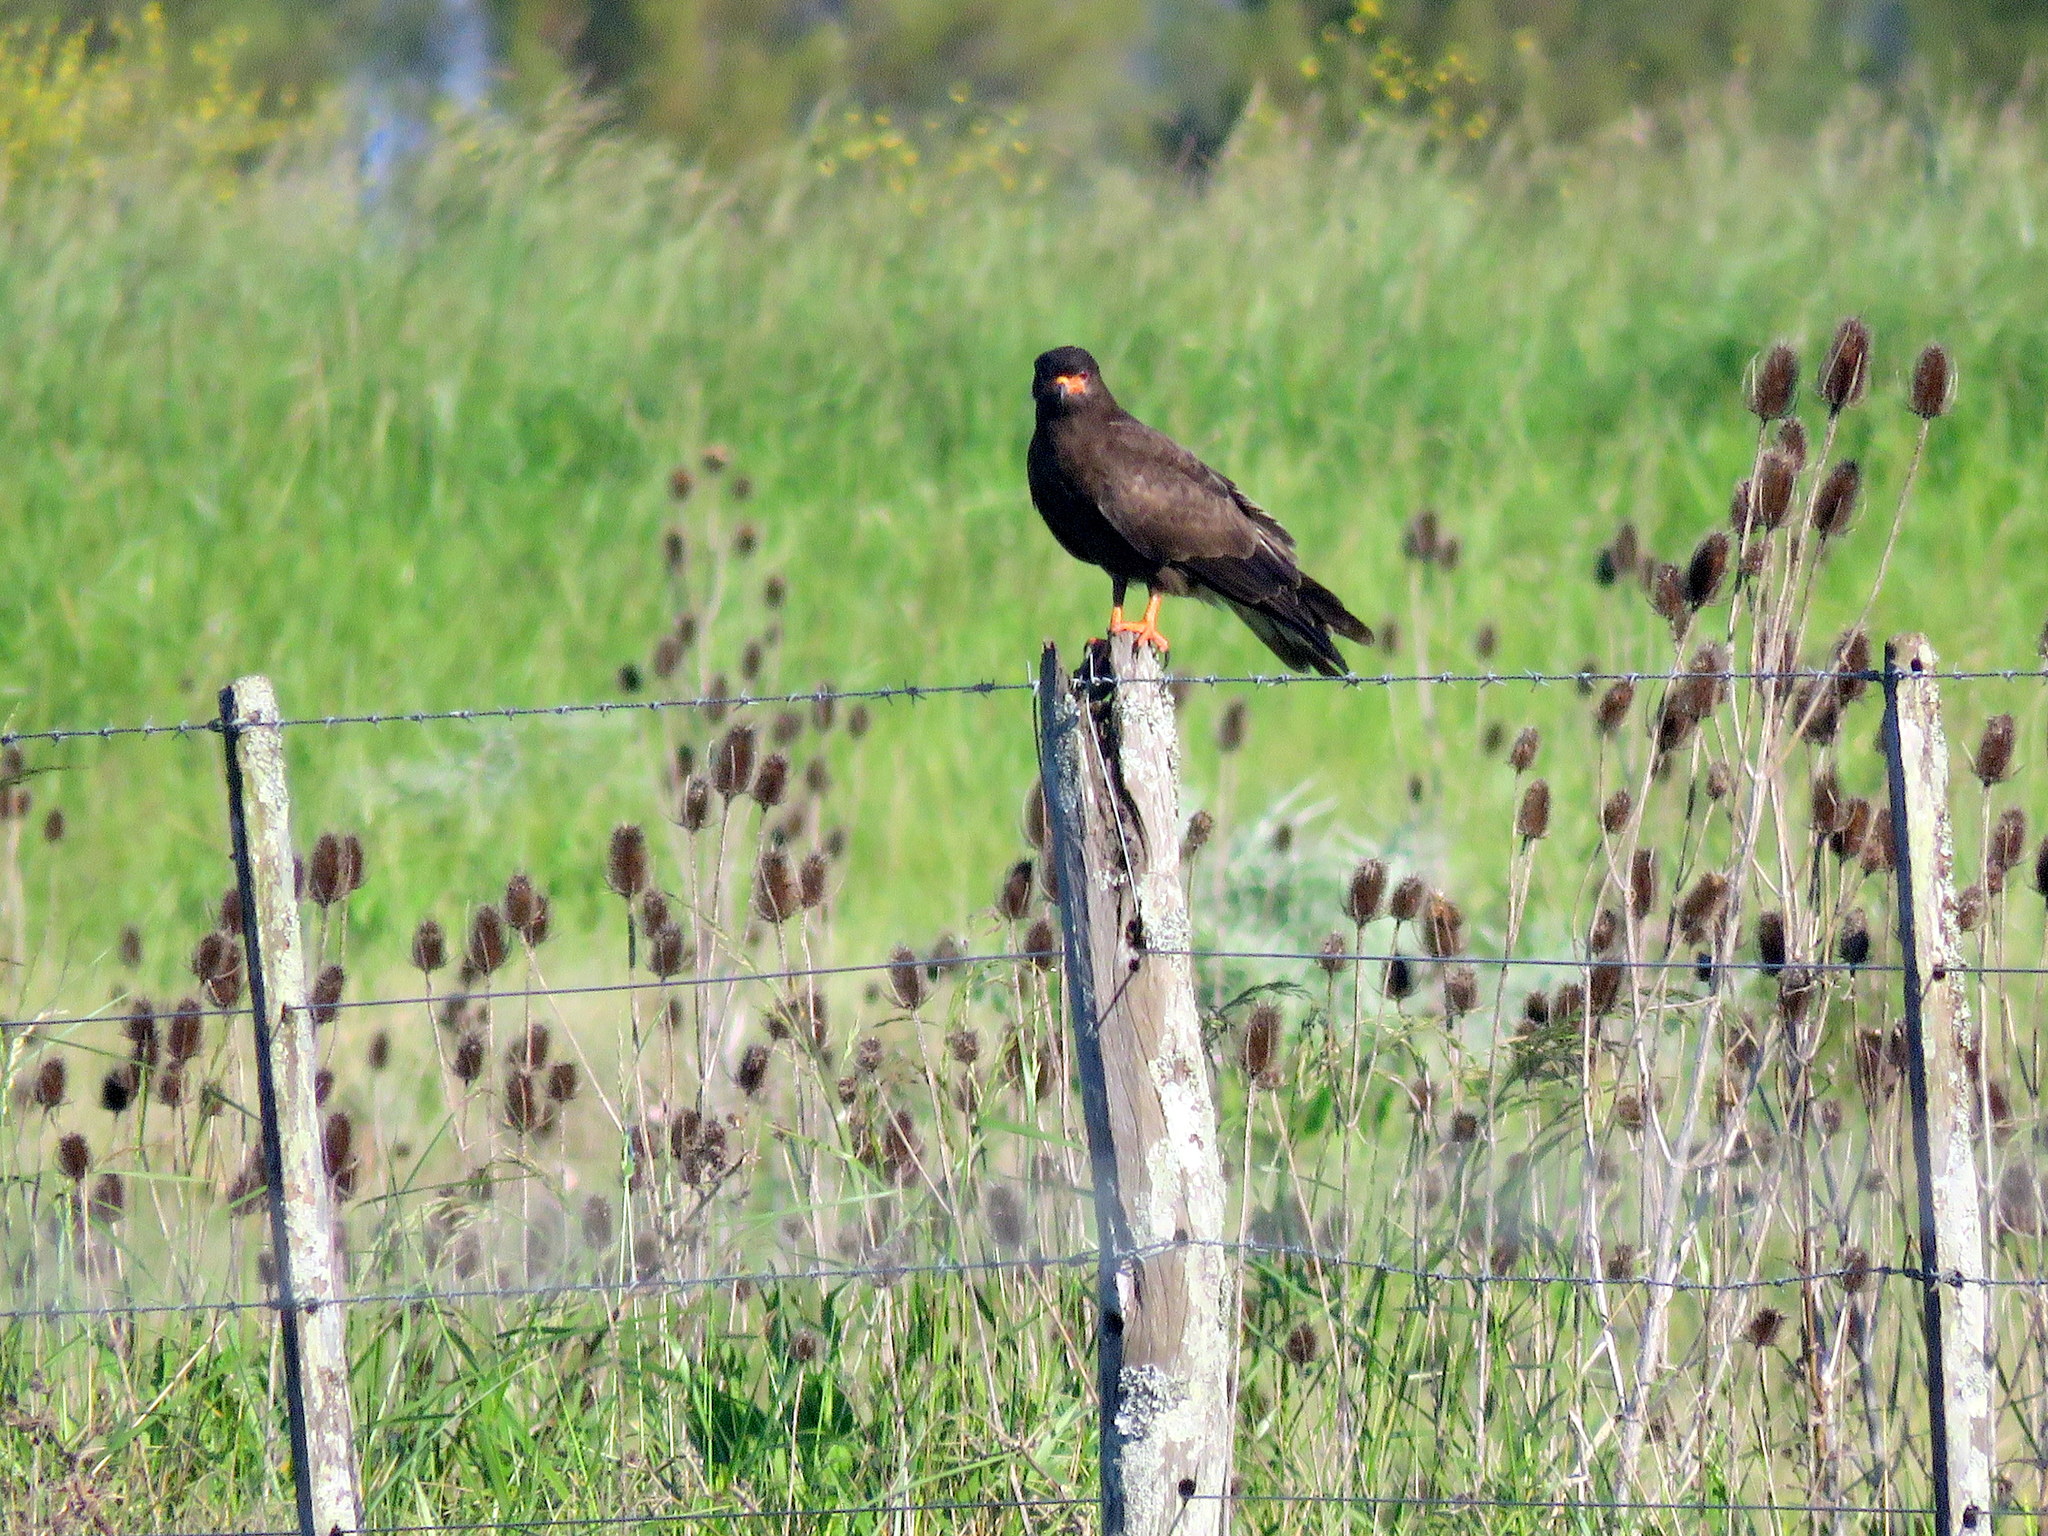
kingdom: Animalia
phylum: Chordata
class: Aves
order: Accipitriformes
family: Accipitridae
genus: Rostrhamus
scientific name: Rostrhamus sociabilis
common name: Snail kite
